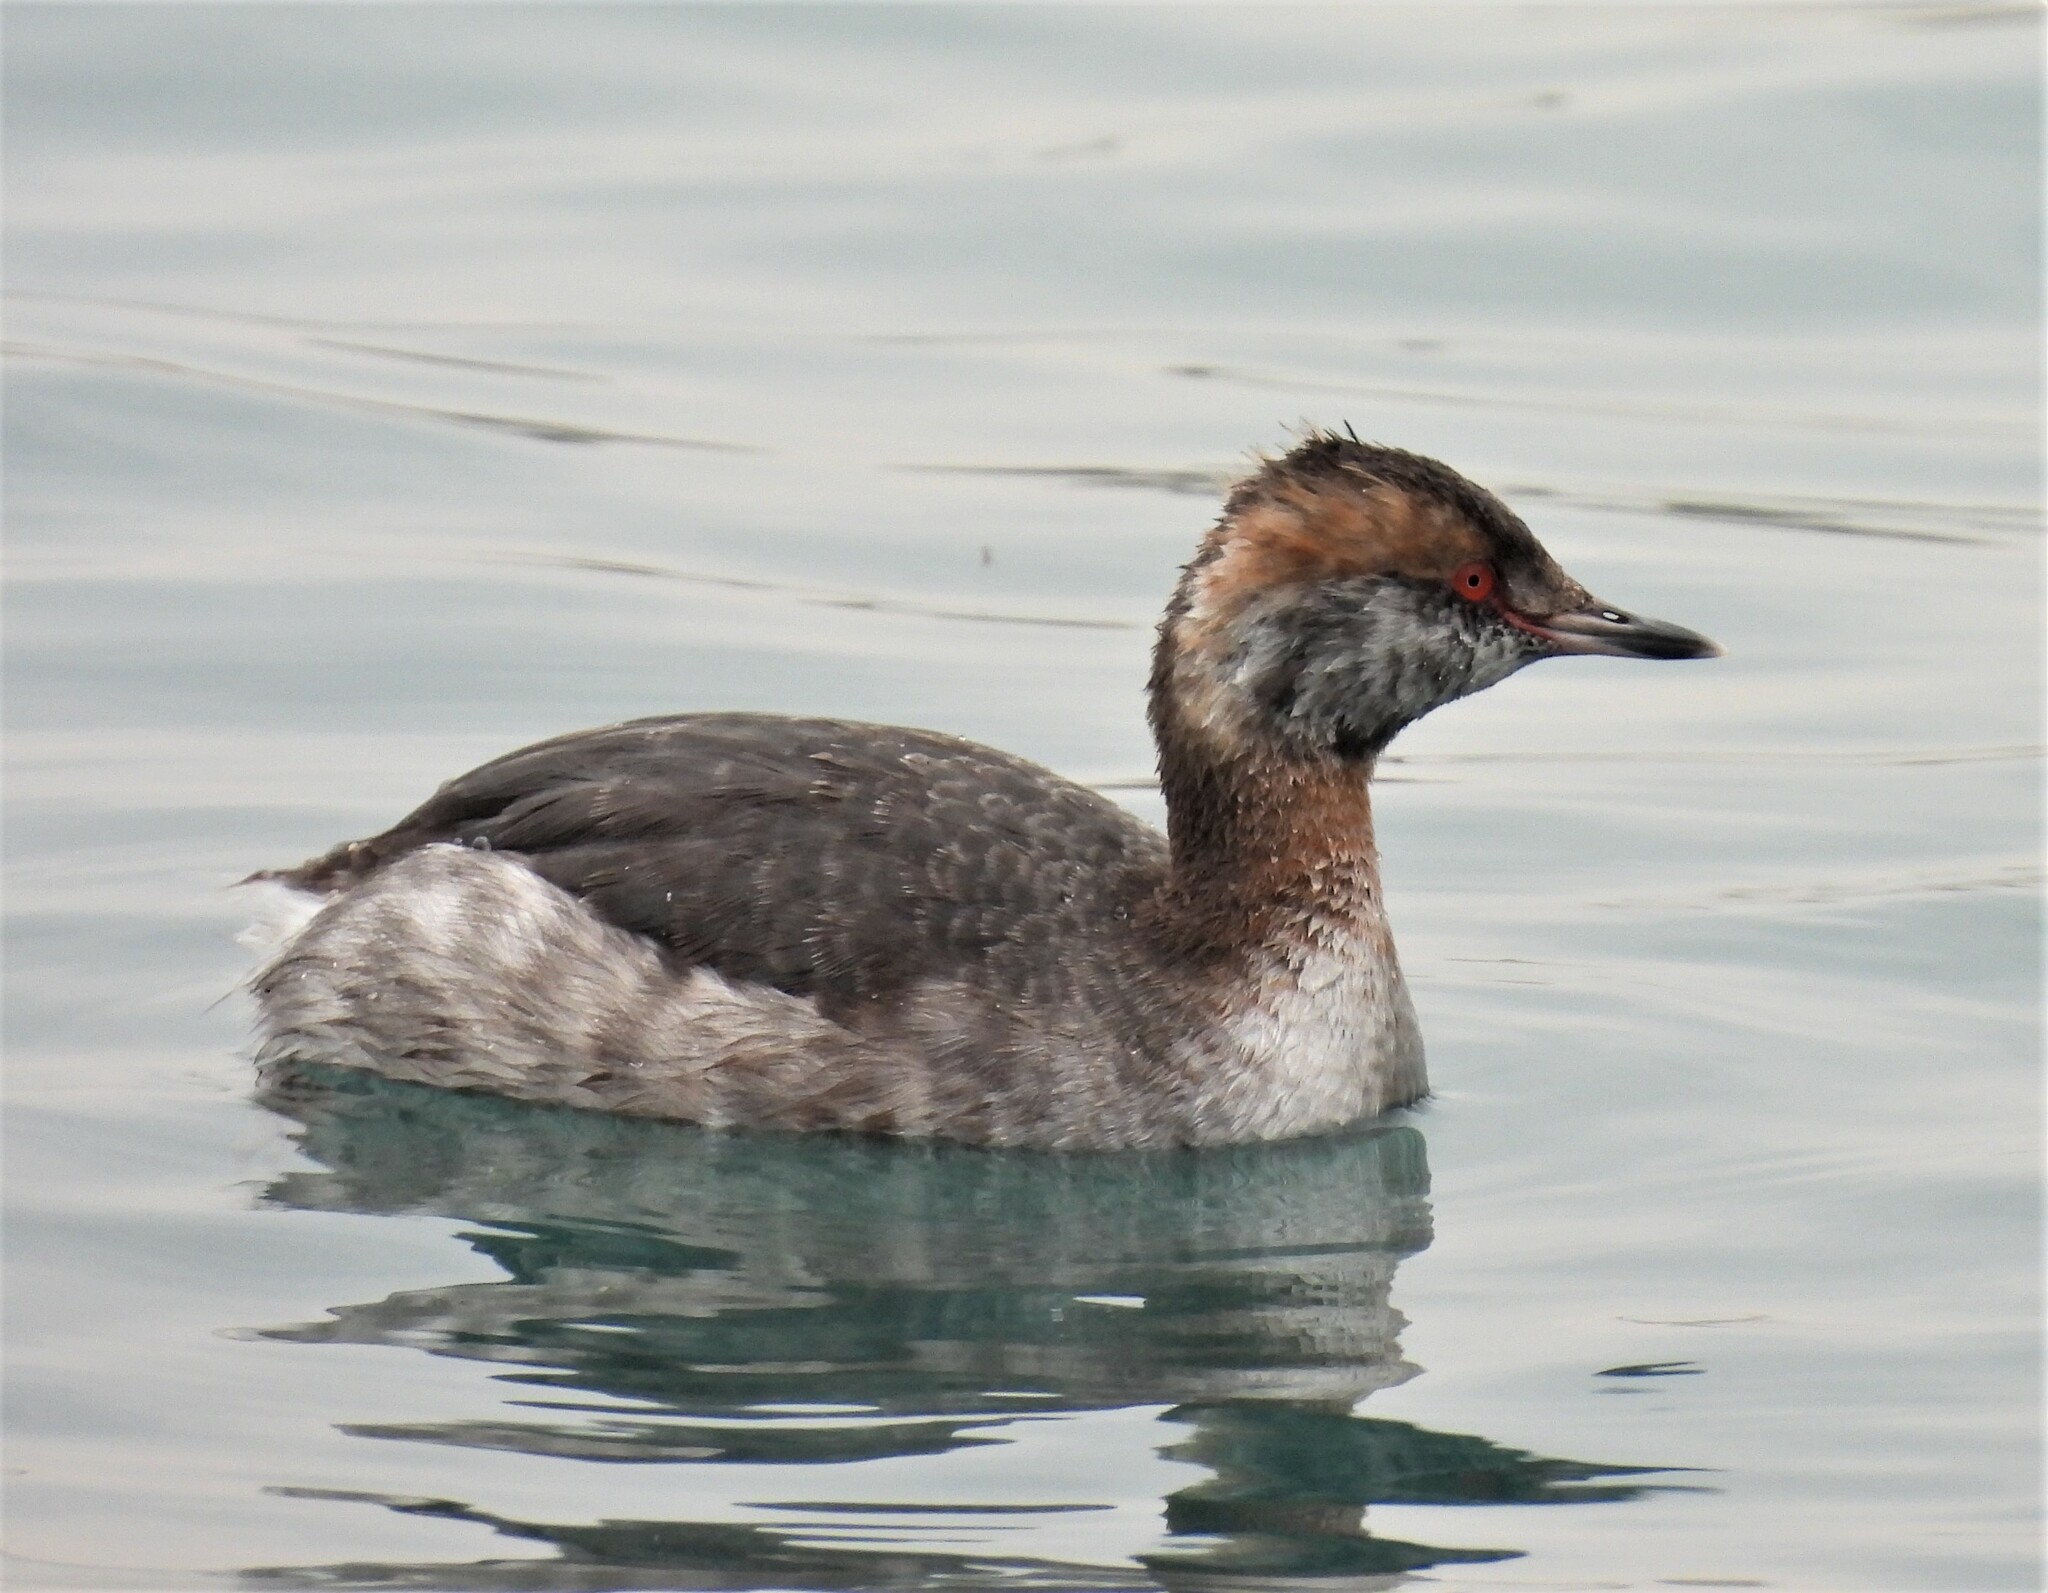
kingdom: Animalia
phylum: Chordata
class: Aves
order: Podicipediformes
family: Podicipedidae
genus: Podiceps
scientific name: Podiceps auritus
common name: Horned grebe
